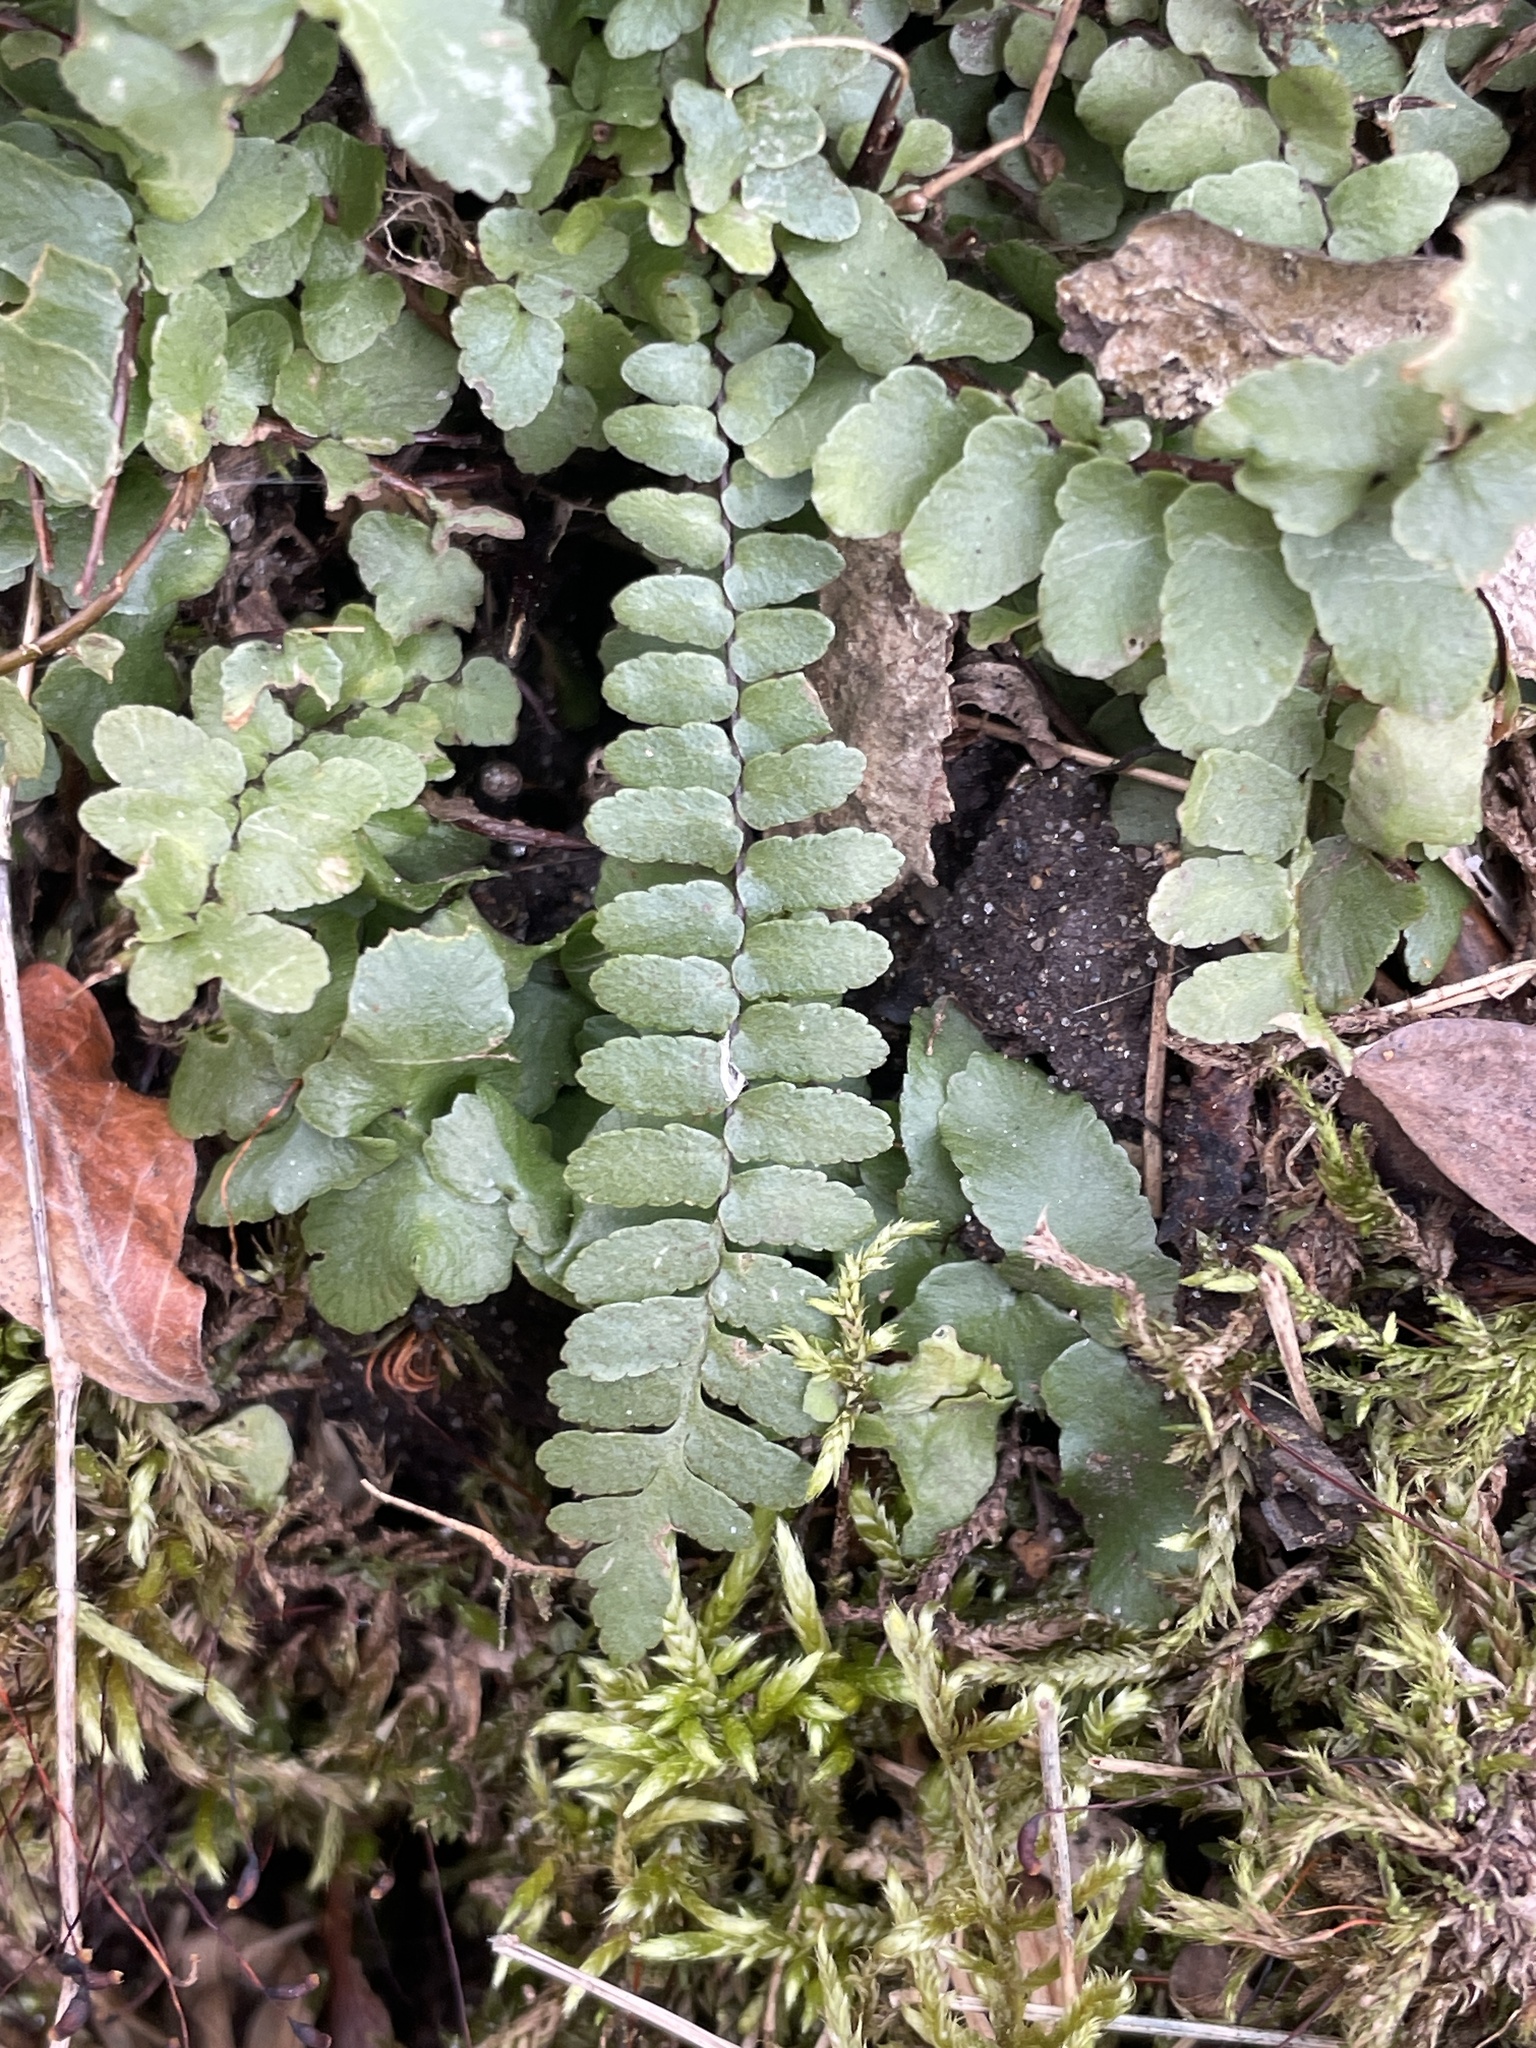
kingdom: Plantae
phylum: Tracheophyta
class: Polypodiopsida
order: Polypodiales
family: Aspleniaceae
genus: Asplenium
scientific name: Asplenium platyneuron
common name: Ebony spleenwort
